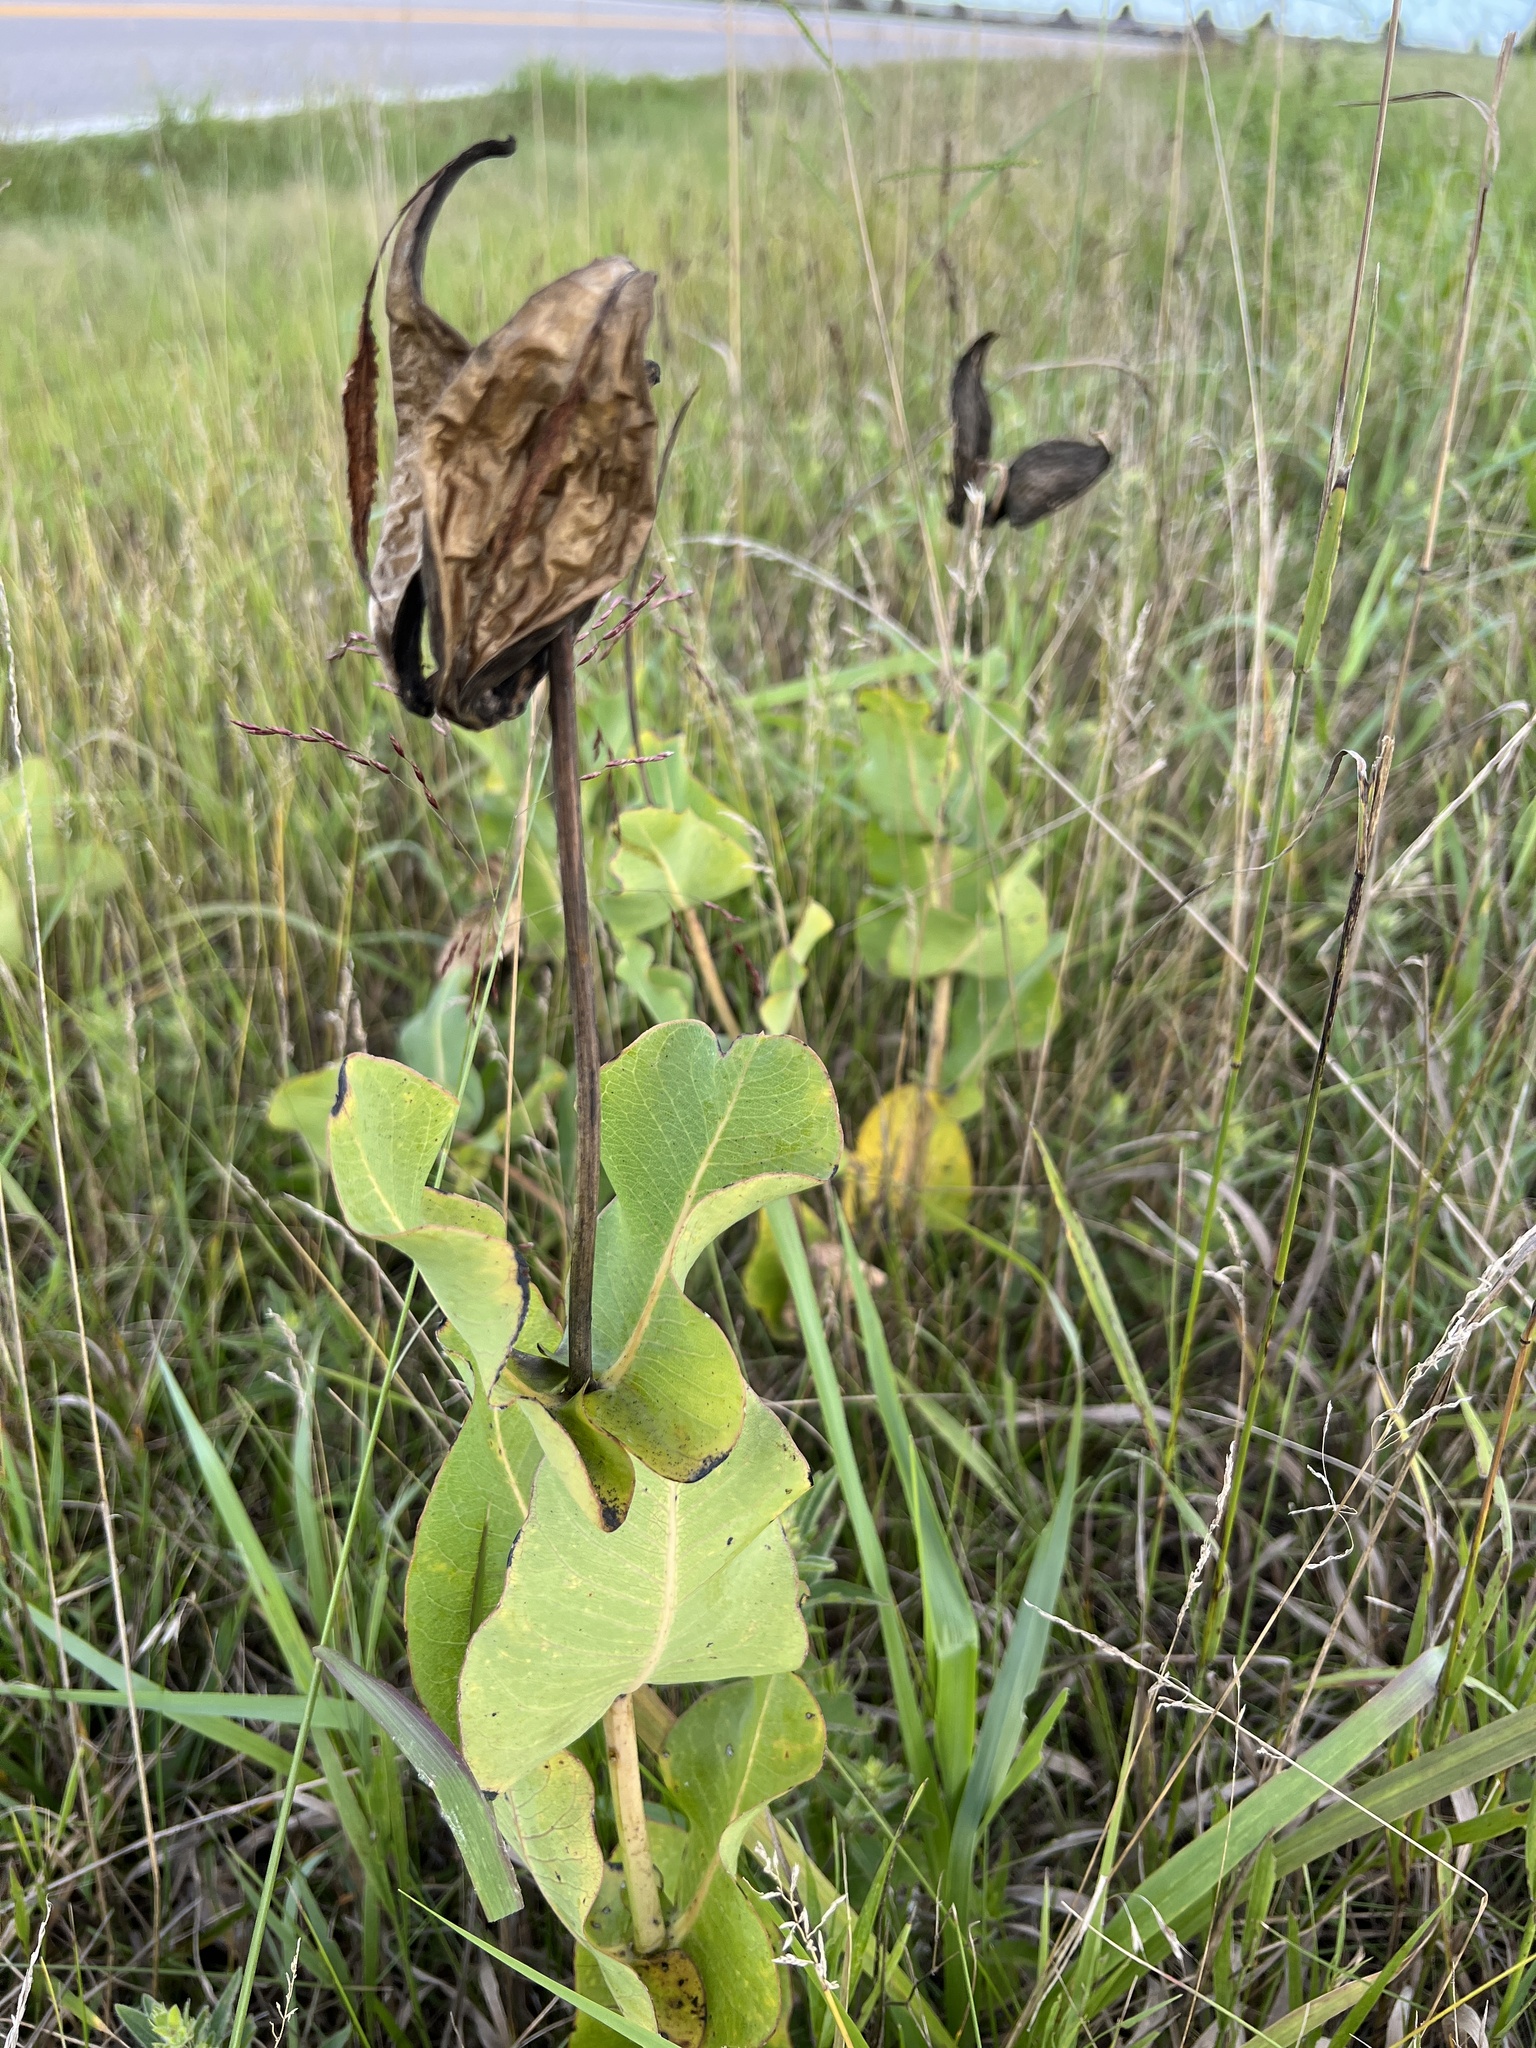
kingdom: Plantae
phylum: Tracheophyta
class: Magnoliopsida
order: Gentianales
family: Apocynaceae
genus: Asclepias
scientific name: Asclepias amplexicaulis
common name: Blunt-leaf milkweed
